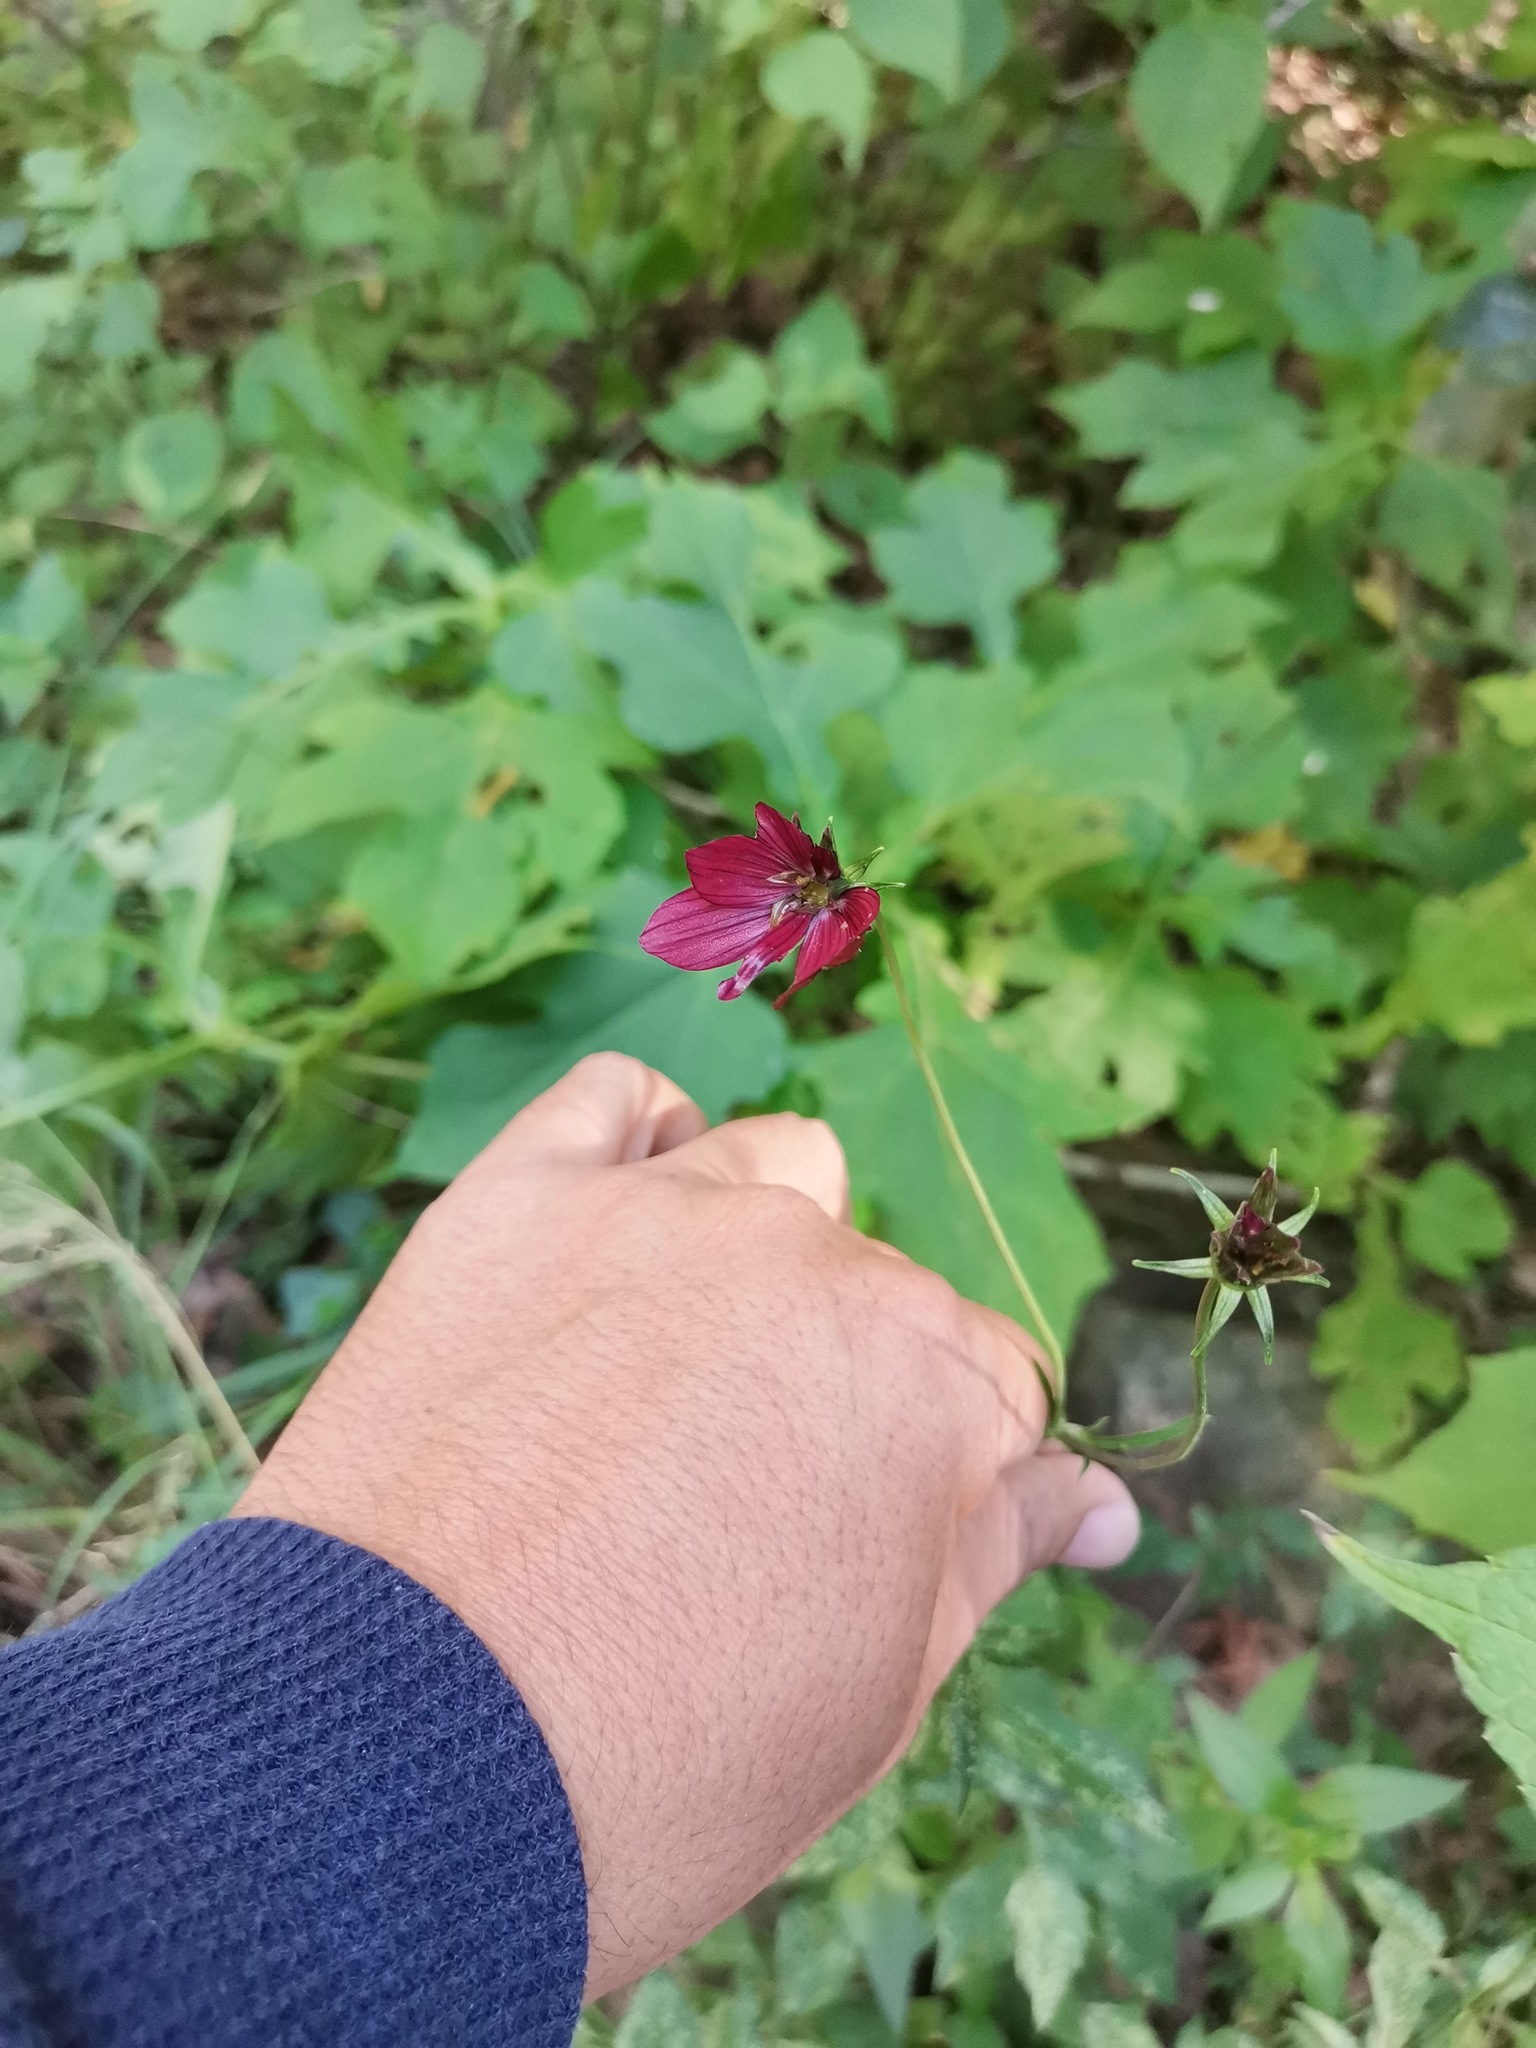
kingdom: Plantae
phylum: Tracheophyta
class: Magnoliopsida
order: Asterales
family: Asteraceae
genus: Cosmos
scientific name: Cosmos scabiosoides
